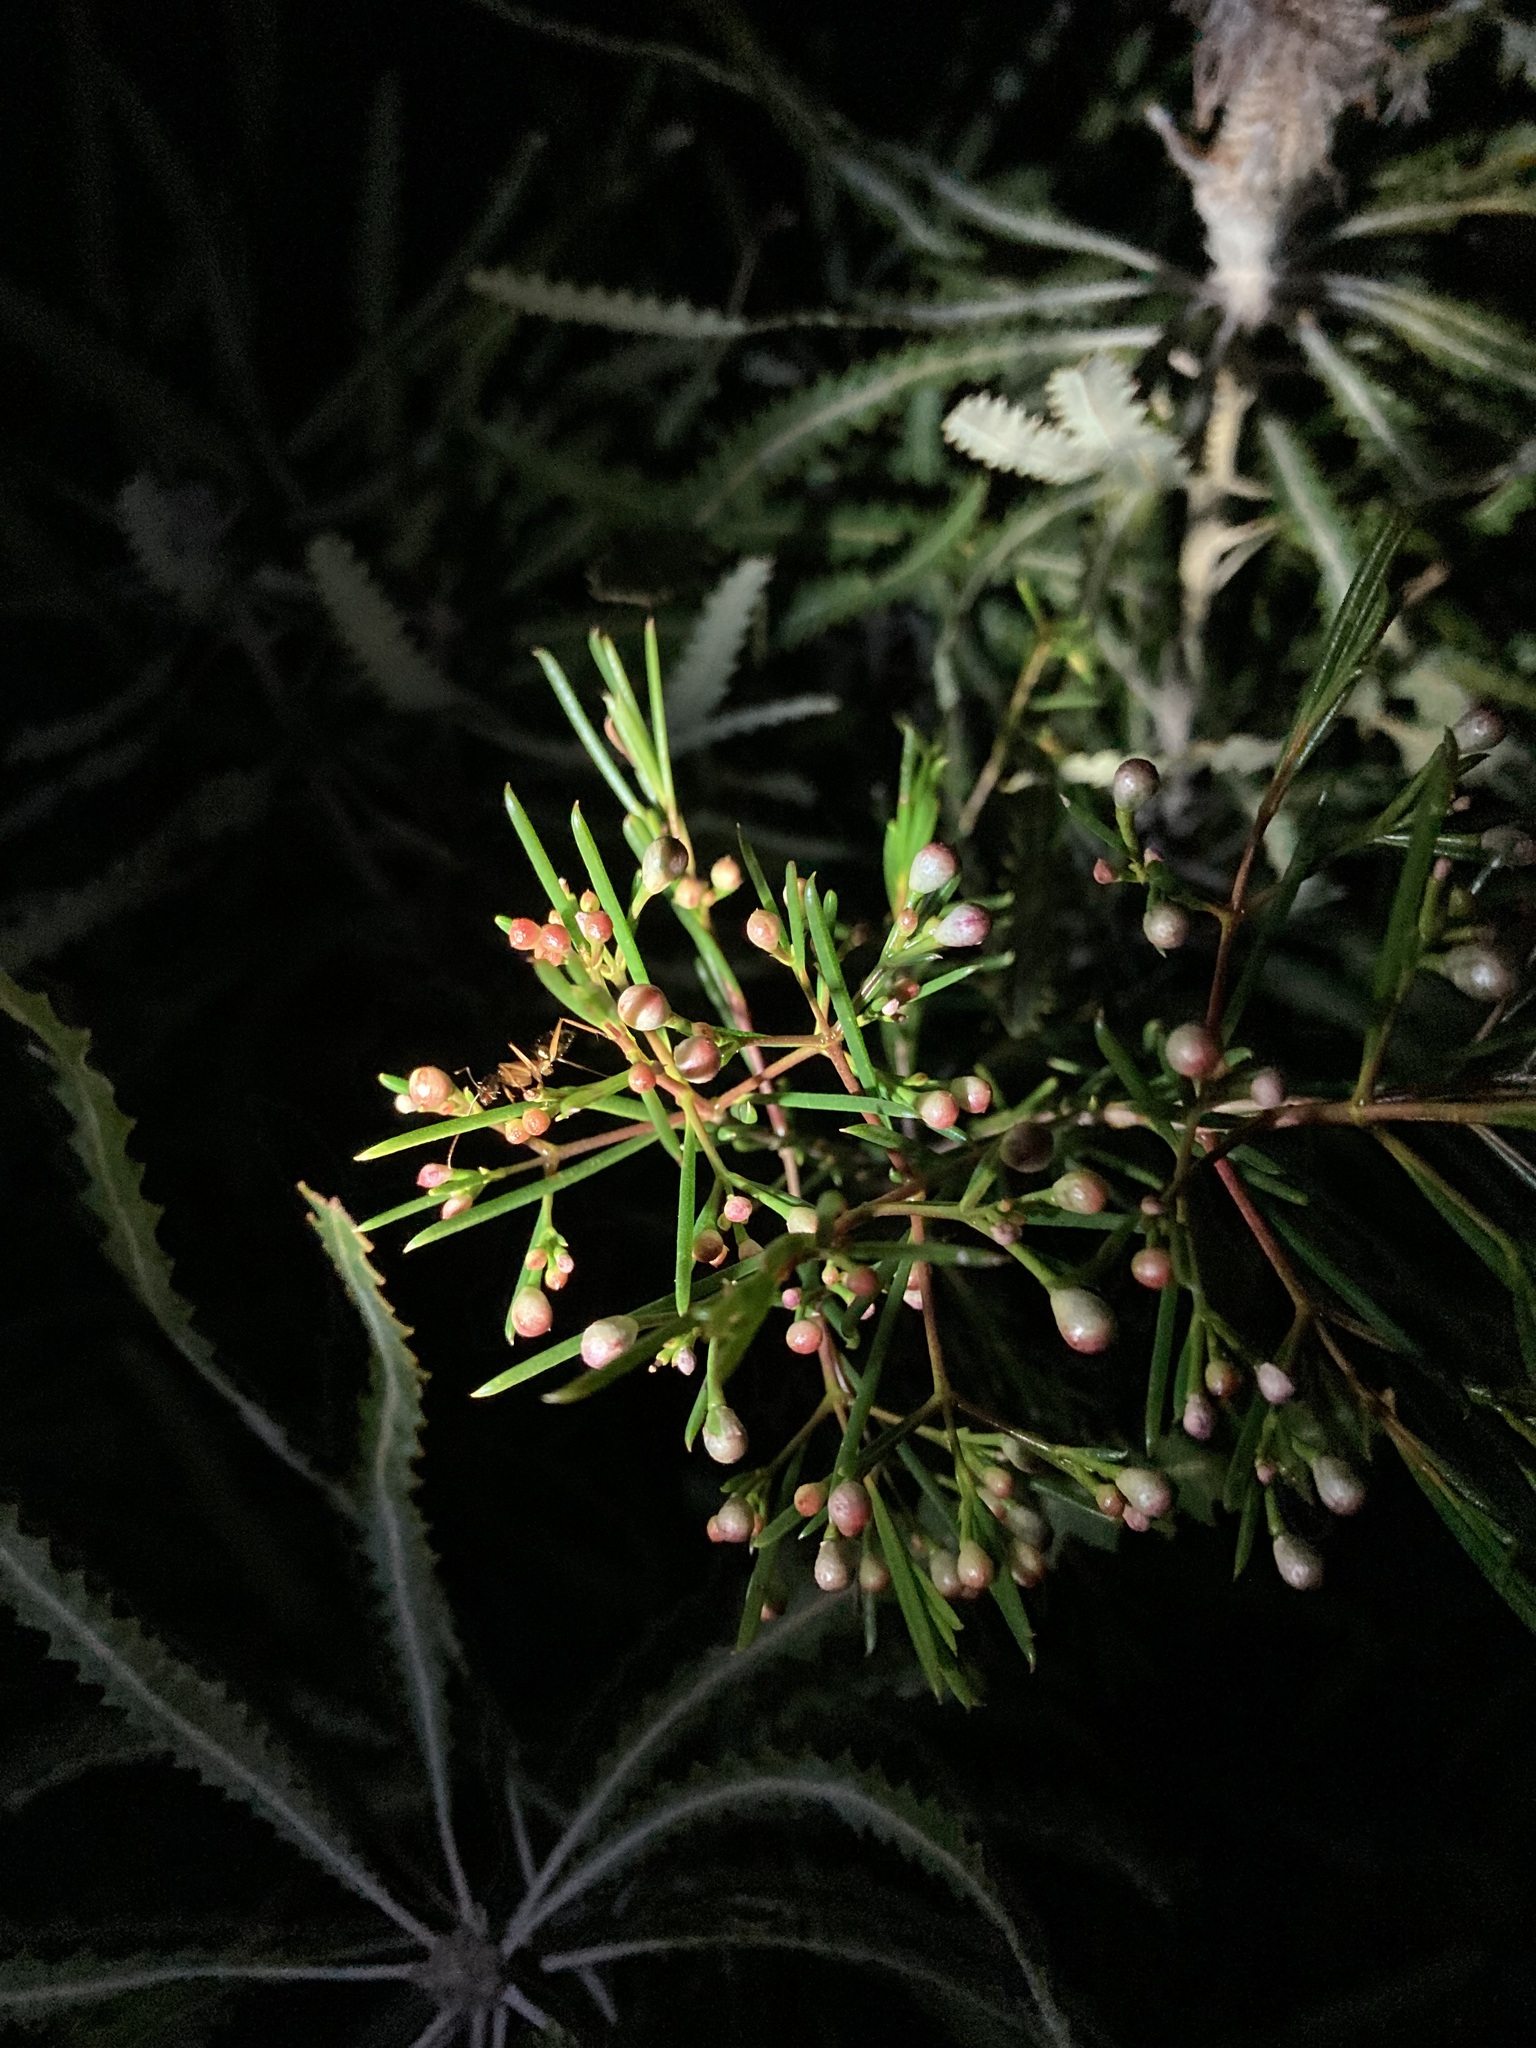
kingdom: Plantae
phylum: Tracheophyta
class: Magnoliopsida
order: Myrtales
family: Myrtaceae
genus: Chamelaucium
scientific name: Chamelaucium uncinatum
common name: Geraldton wax
